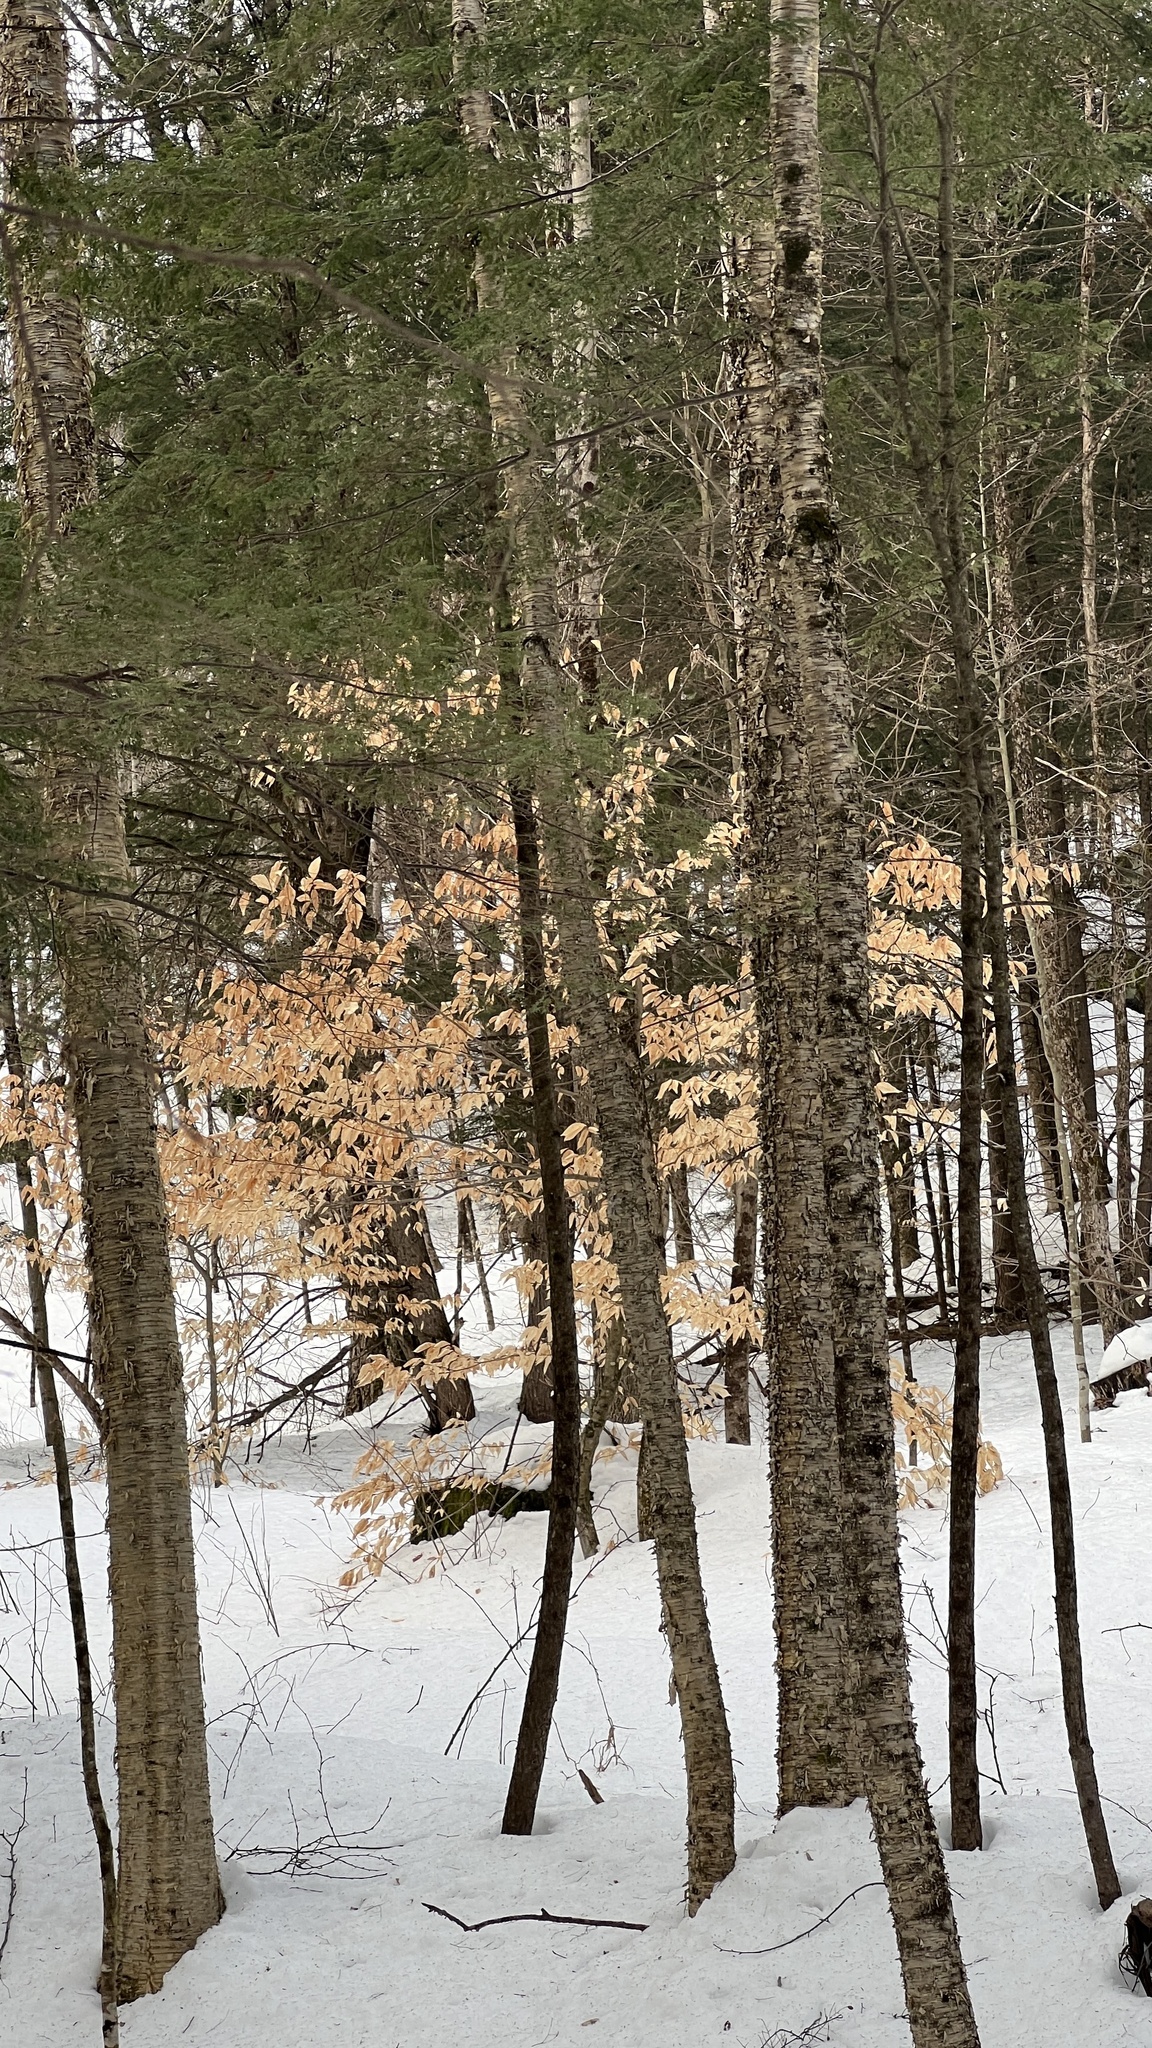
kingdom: Plantae
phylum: Tracheophyta
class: Magnoliopsida
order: Fagales
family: Fagaceae
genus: Fagus
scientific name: Fagus grandifolia
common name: American beech
